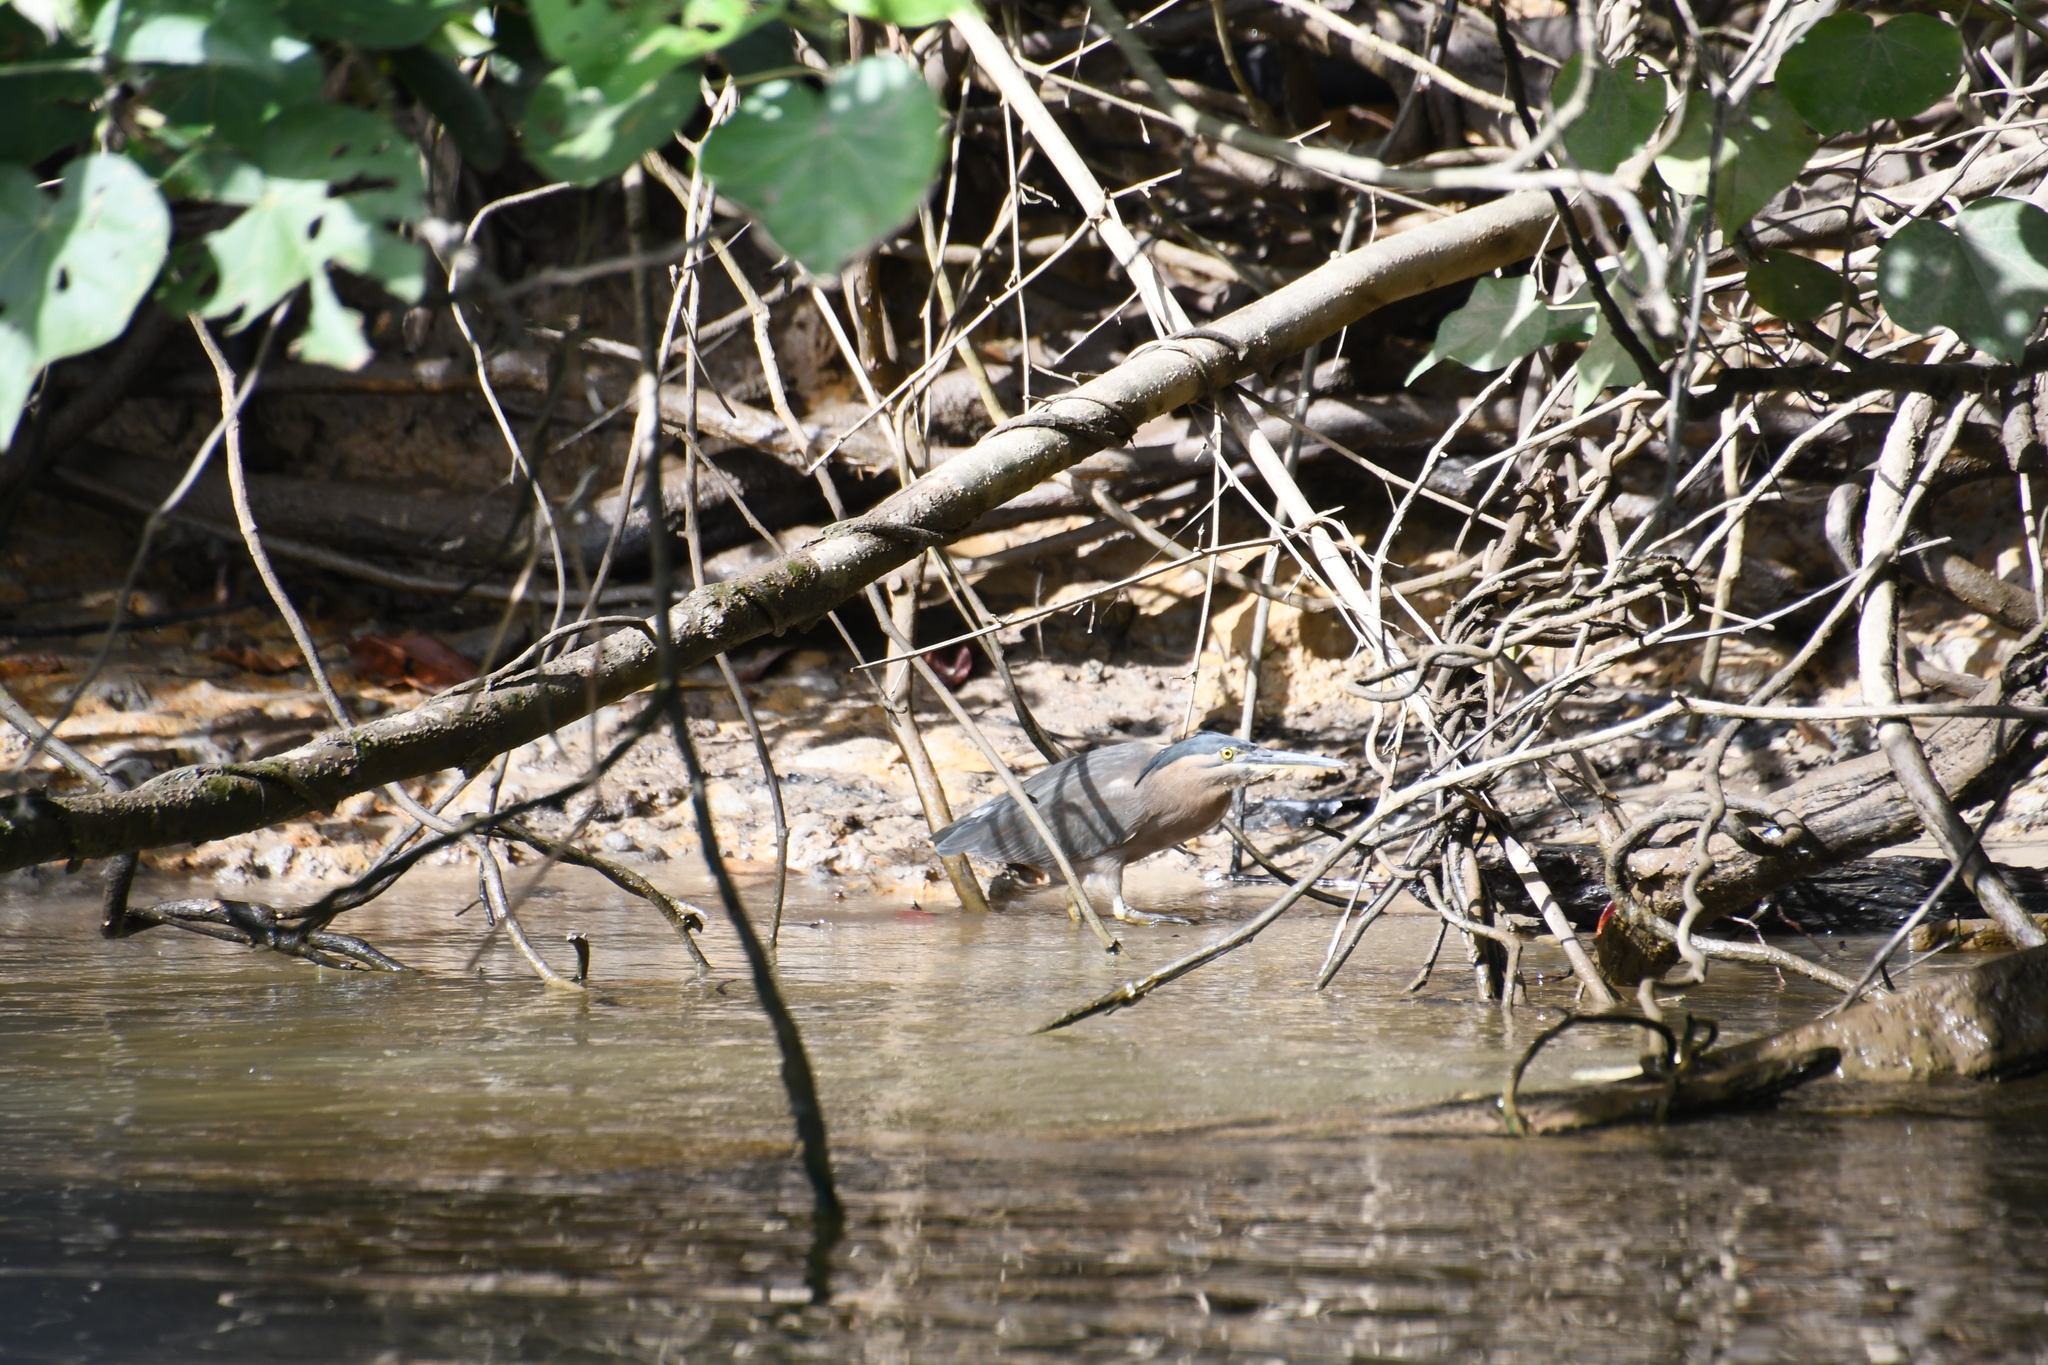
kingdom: Animalia
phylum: Chordata
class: Aves
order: Pelecaniformes
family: Ardeidae
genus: Butorides
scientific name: Butorides striata
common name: Striated heron
